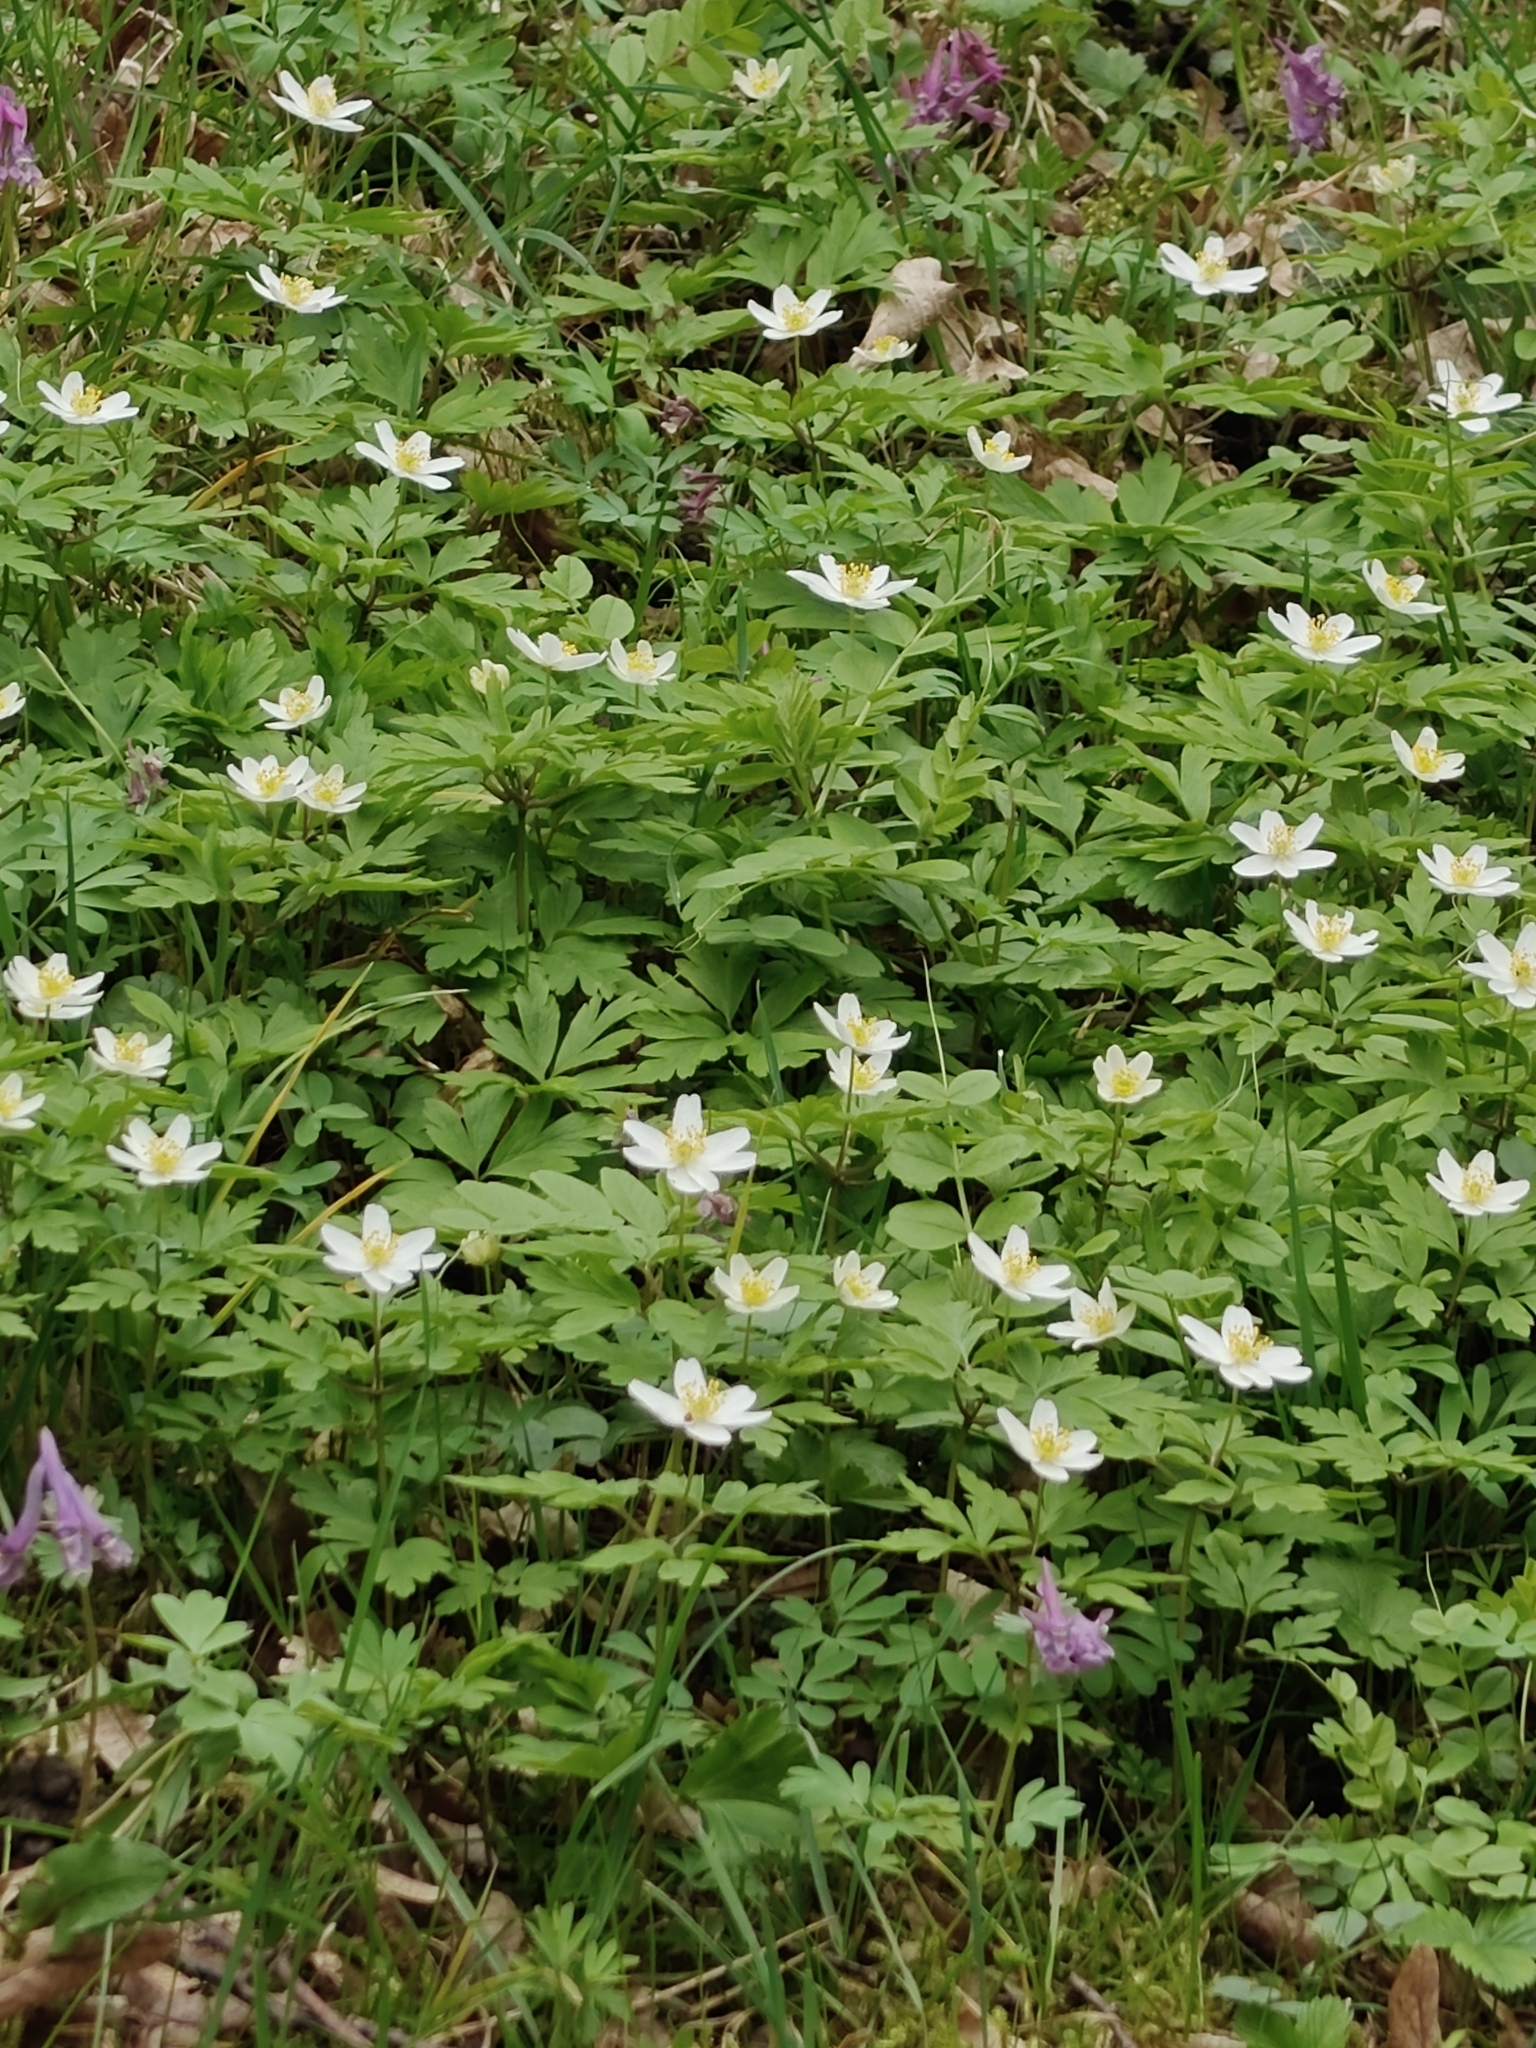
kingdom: Plantae
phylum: Tracheophyta
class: Magnoliopsida
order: Ranunculales
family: Ranunculaceae
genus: Anemone
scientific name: Anemone nemorosa
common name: Wood anemone
